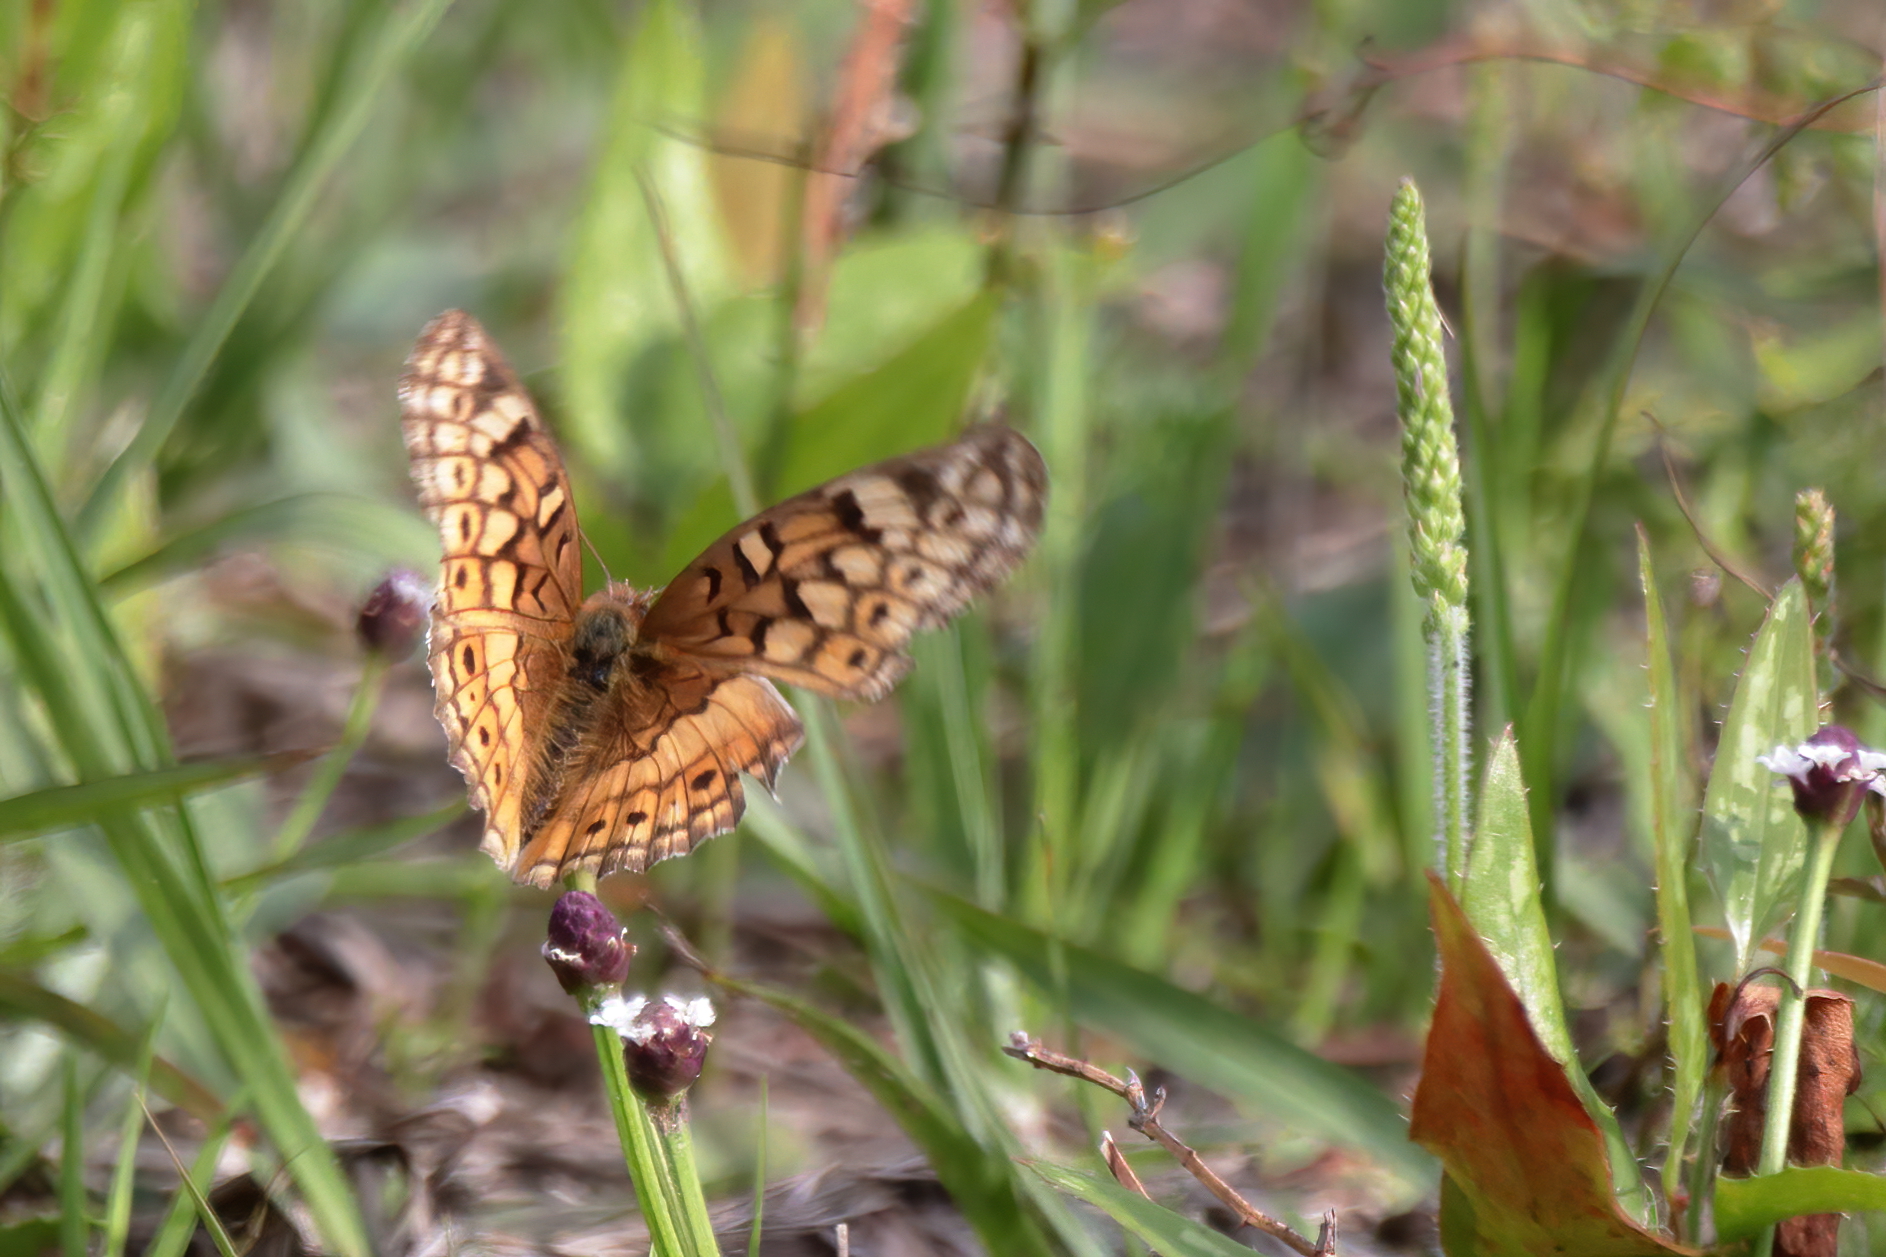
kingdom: Animalia
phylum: Arthropoda
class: Insecta
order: Lepidoptera
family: Nymphalidae
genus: Euptoieta
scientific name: Euptoieta claudia
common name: Variegated fritillary
